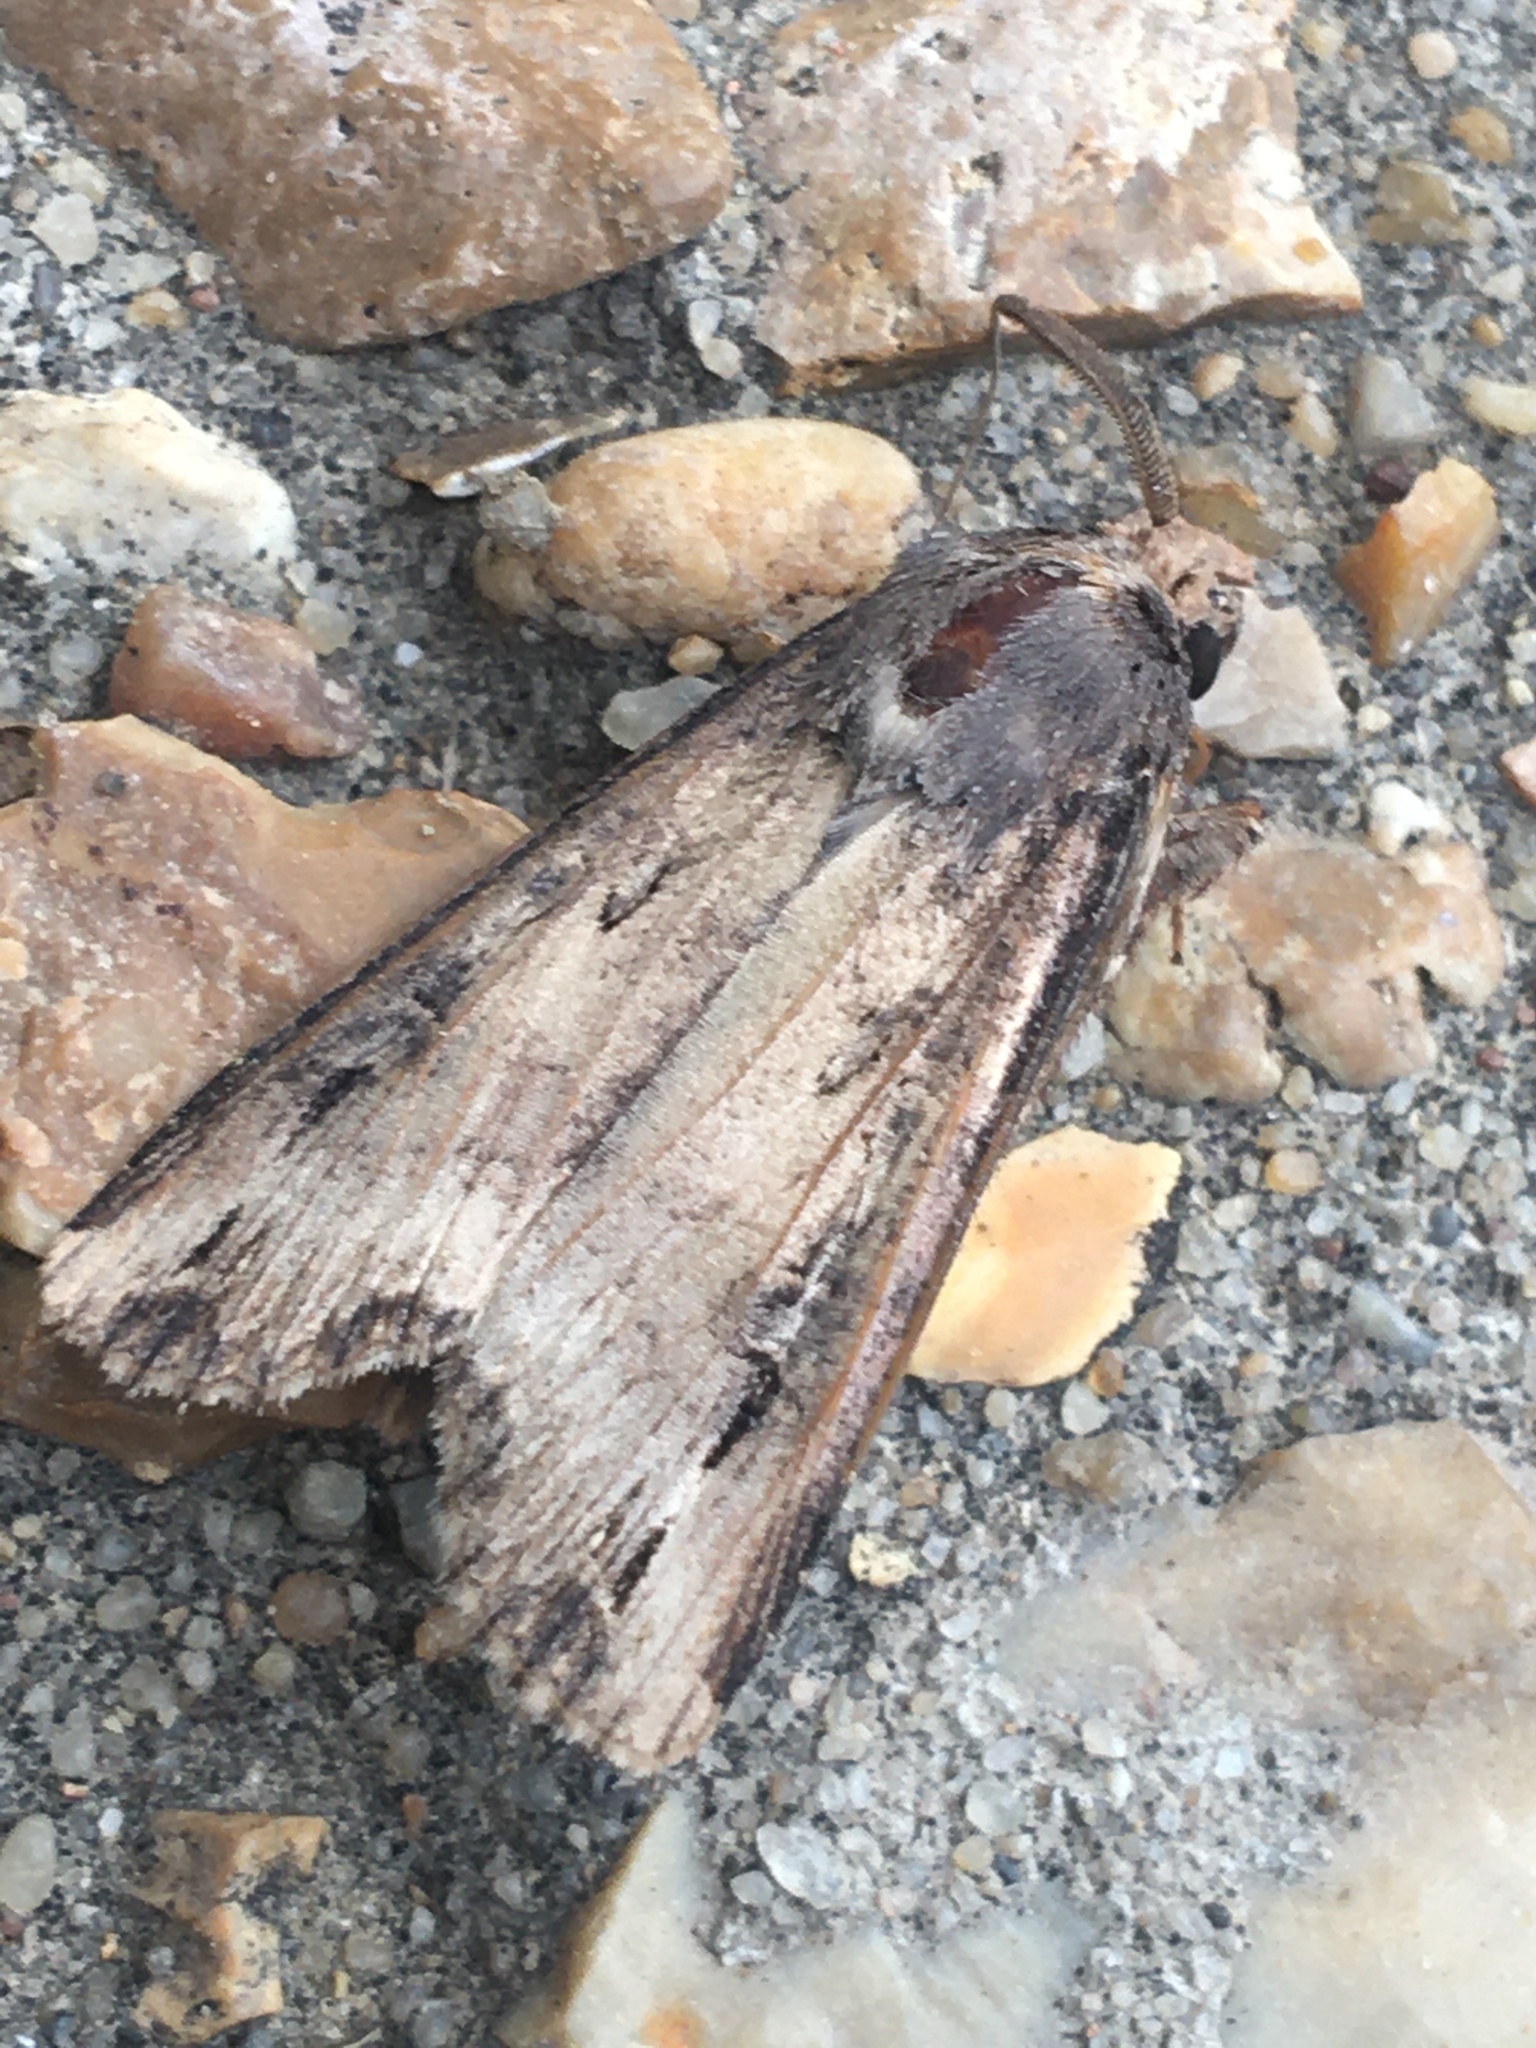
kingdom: Animalia
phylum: Arthropoda
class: Insecta
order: Lepidoptera
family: Noctuidae
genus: Agrotis
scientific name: Agrotis ipsilon
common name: Dark sword-grass
